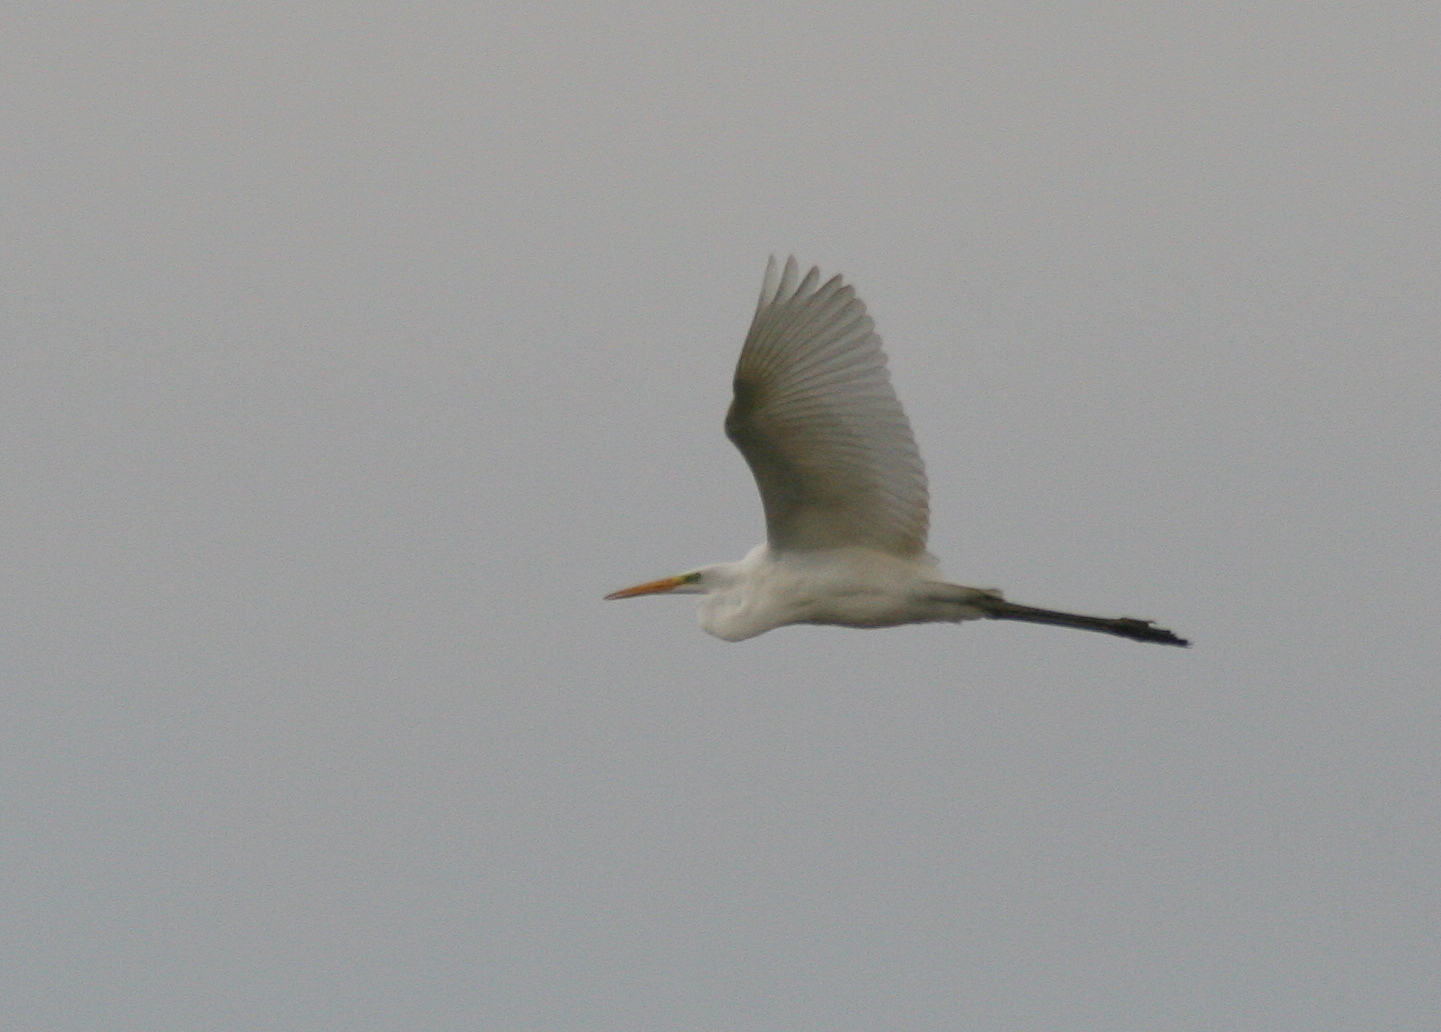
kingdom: Animalia
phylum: Chordata
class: Aves
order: Pelecaniformes
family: Ardeidae
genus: Ardea
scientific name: Ardea alba
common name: Great egret
